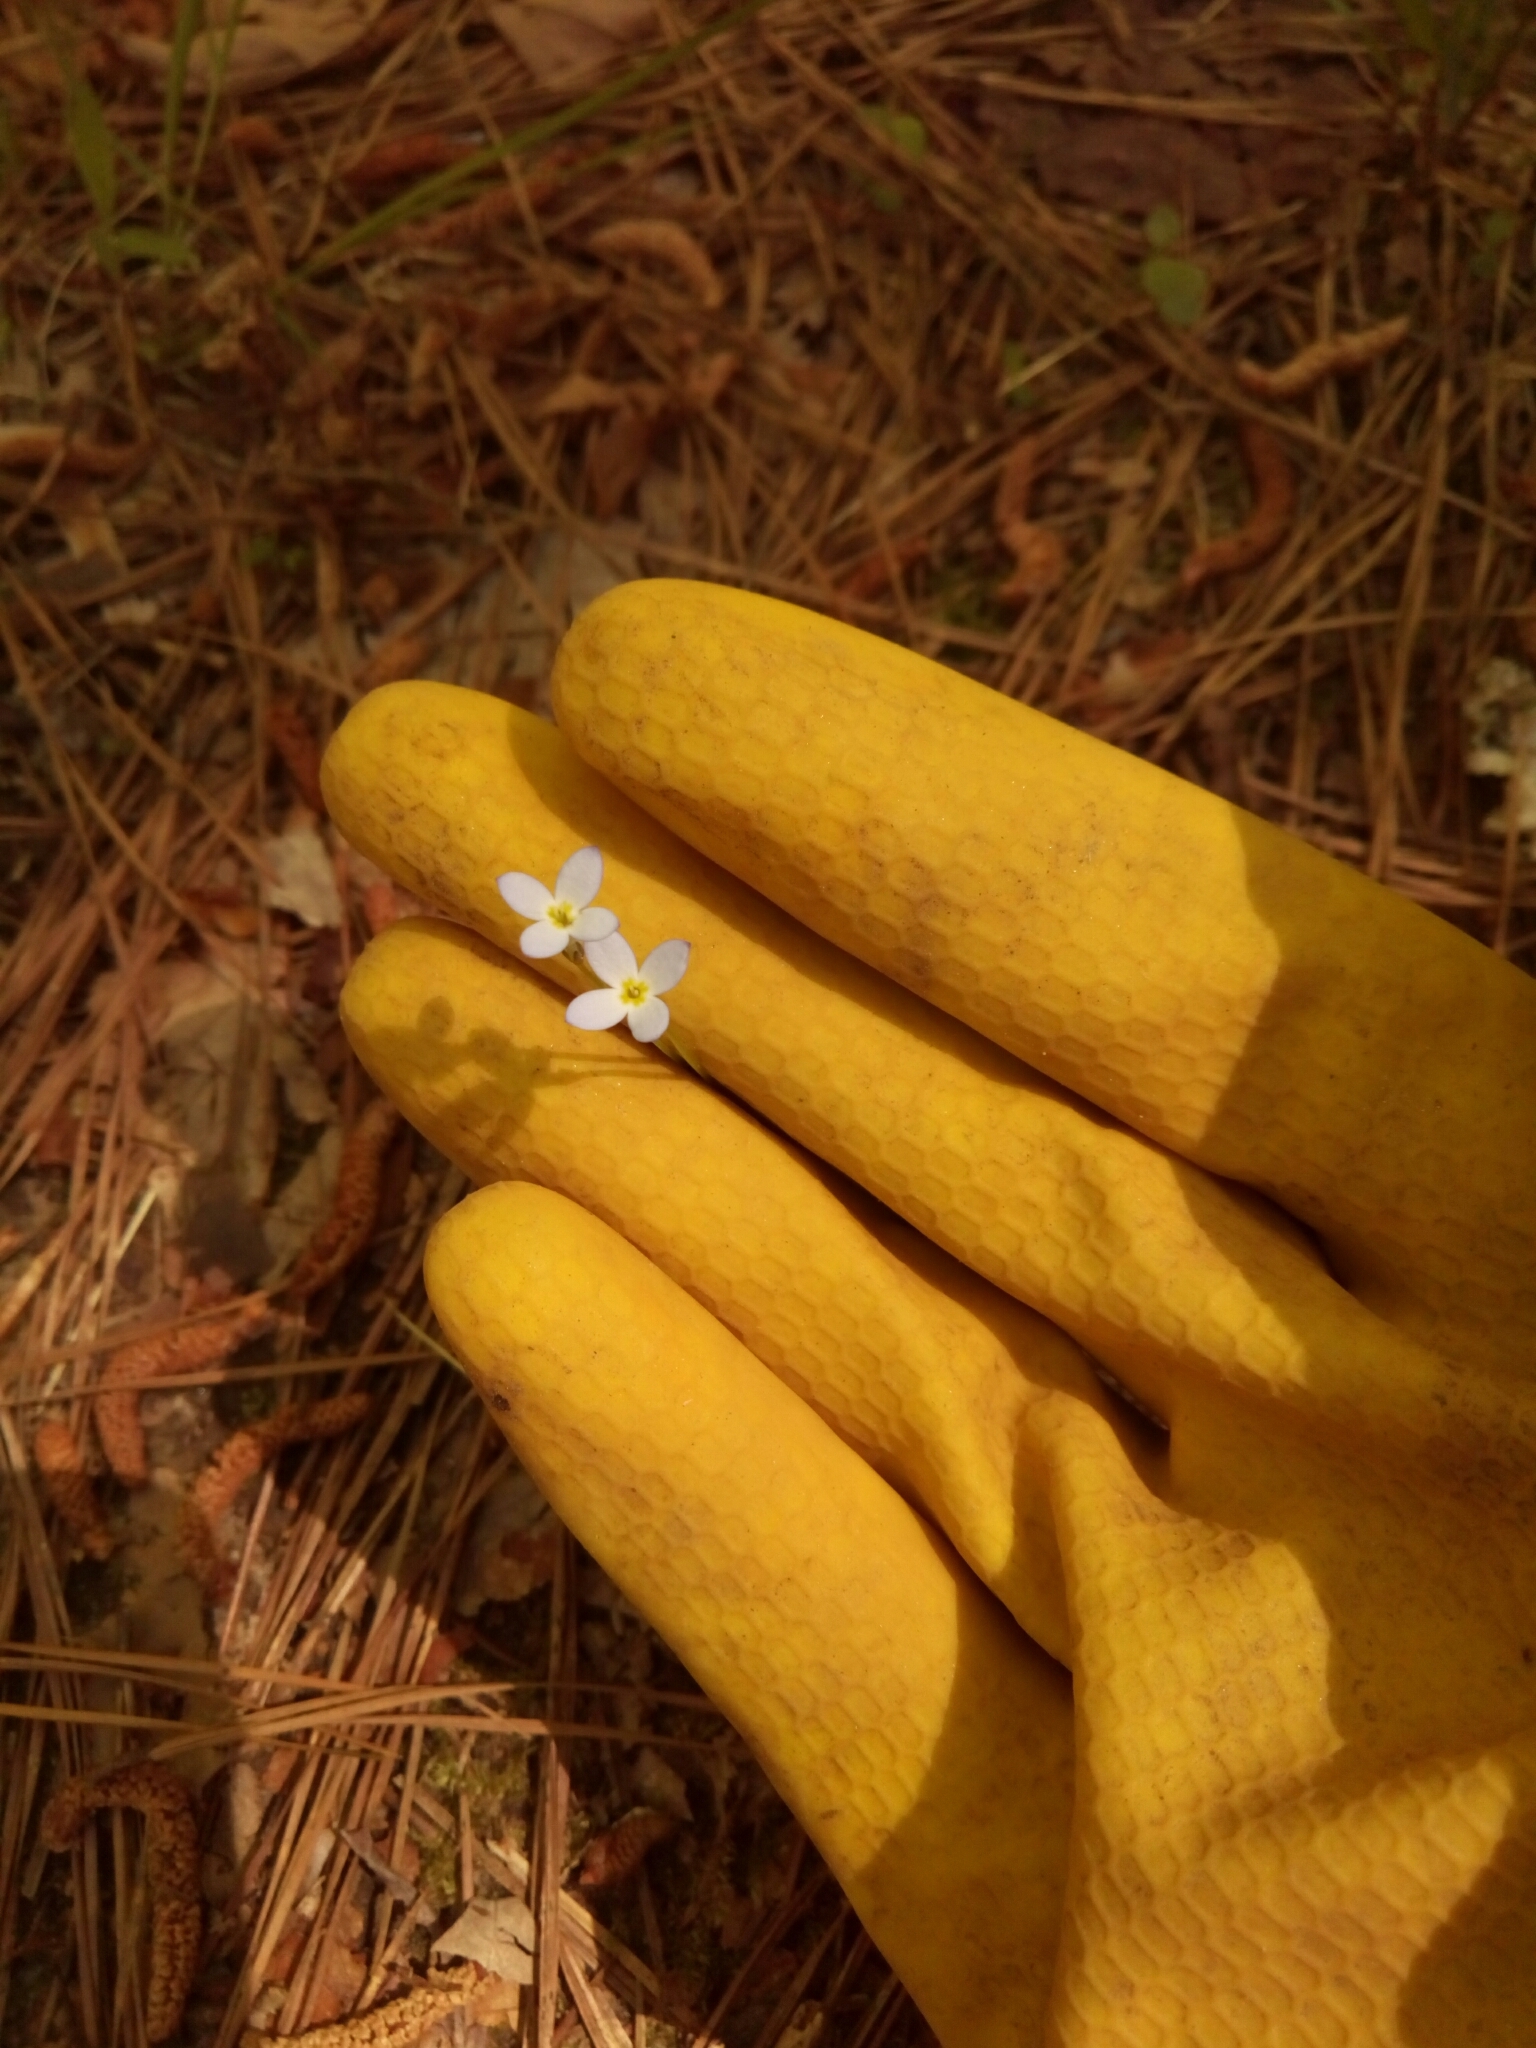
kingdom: Plantae
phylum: Tracheophyta
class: Magnoliopsida
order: Gentianales
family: Rubiaceae
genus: Houstonia
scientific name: Houstonia caerulea
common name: Bluets
